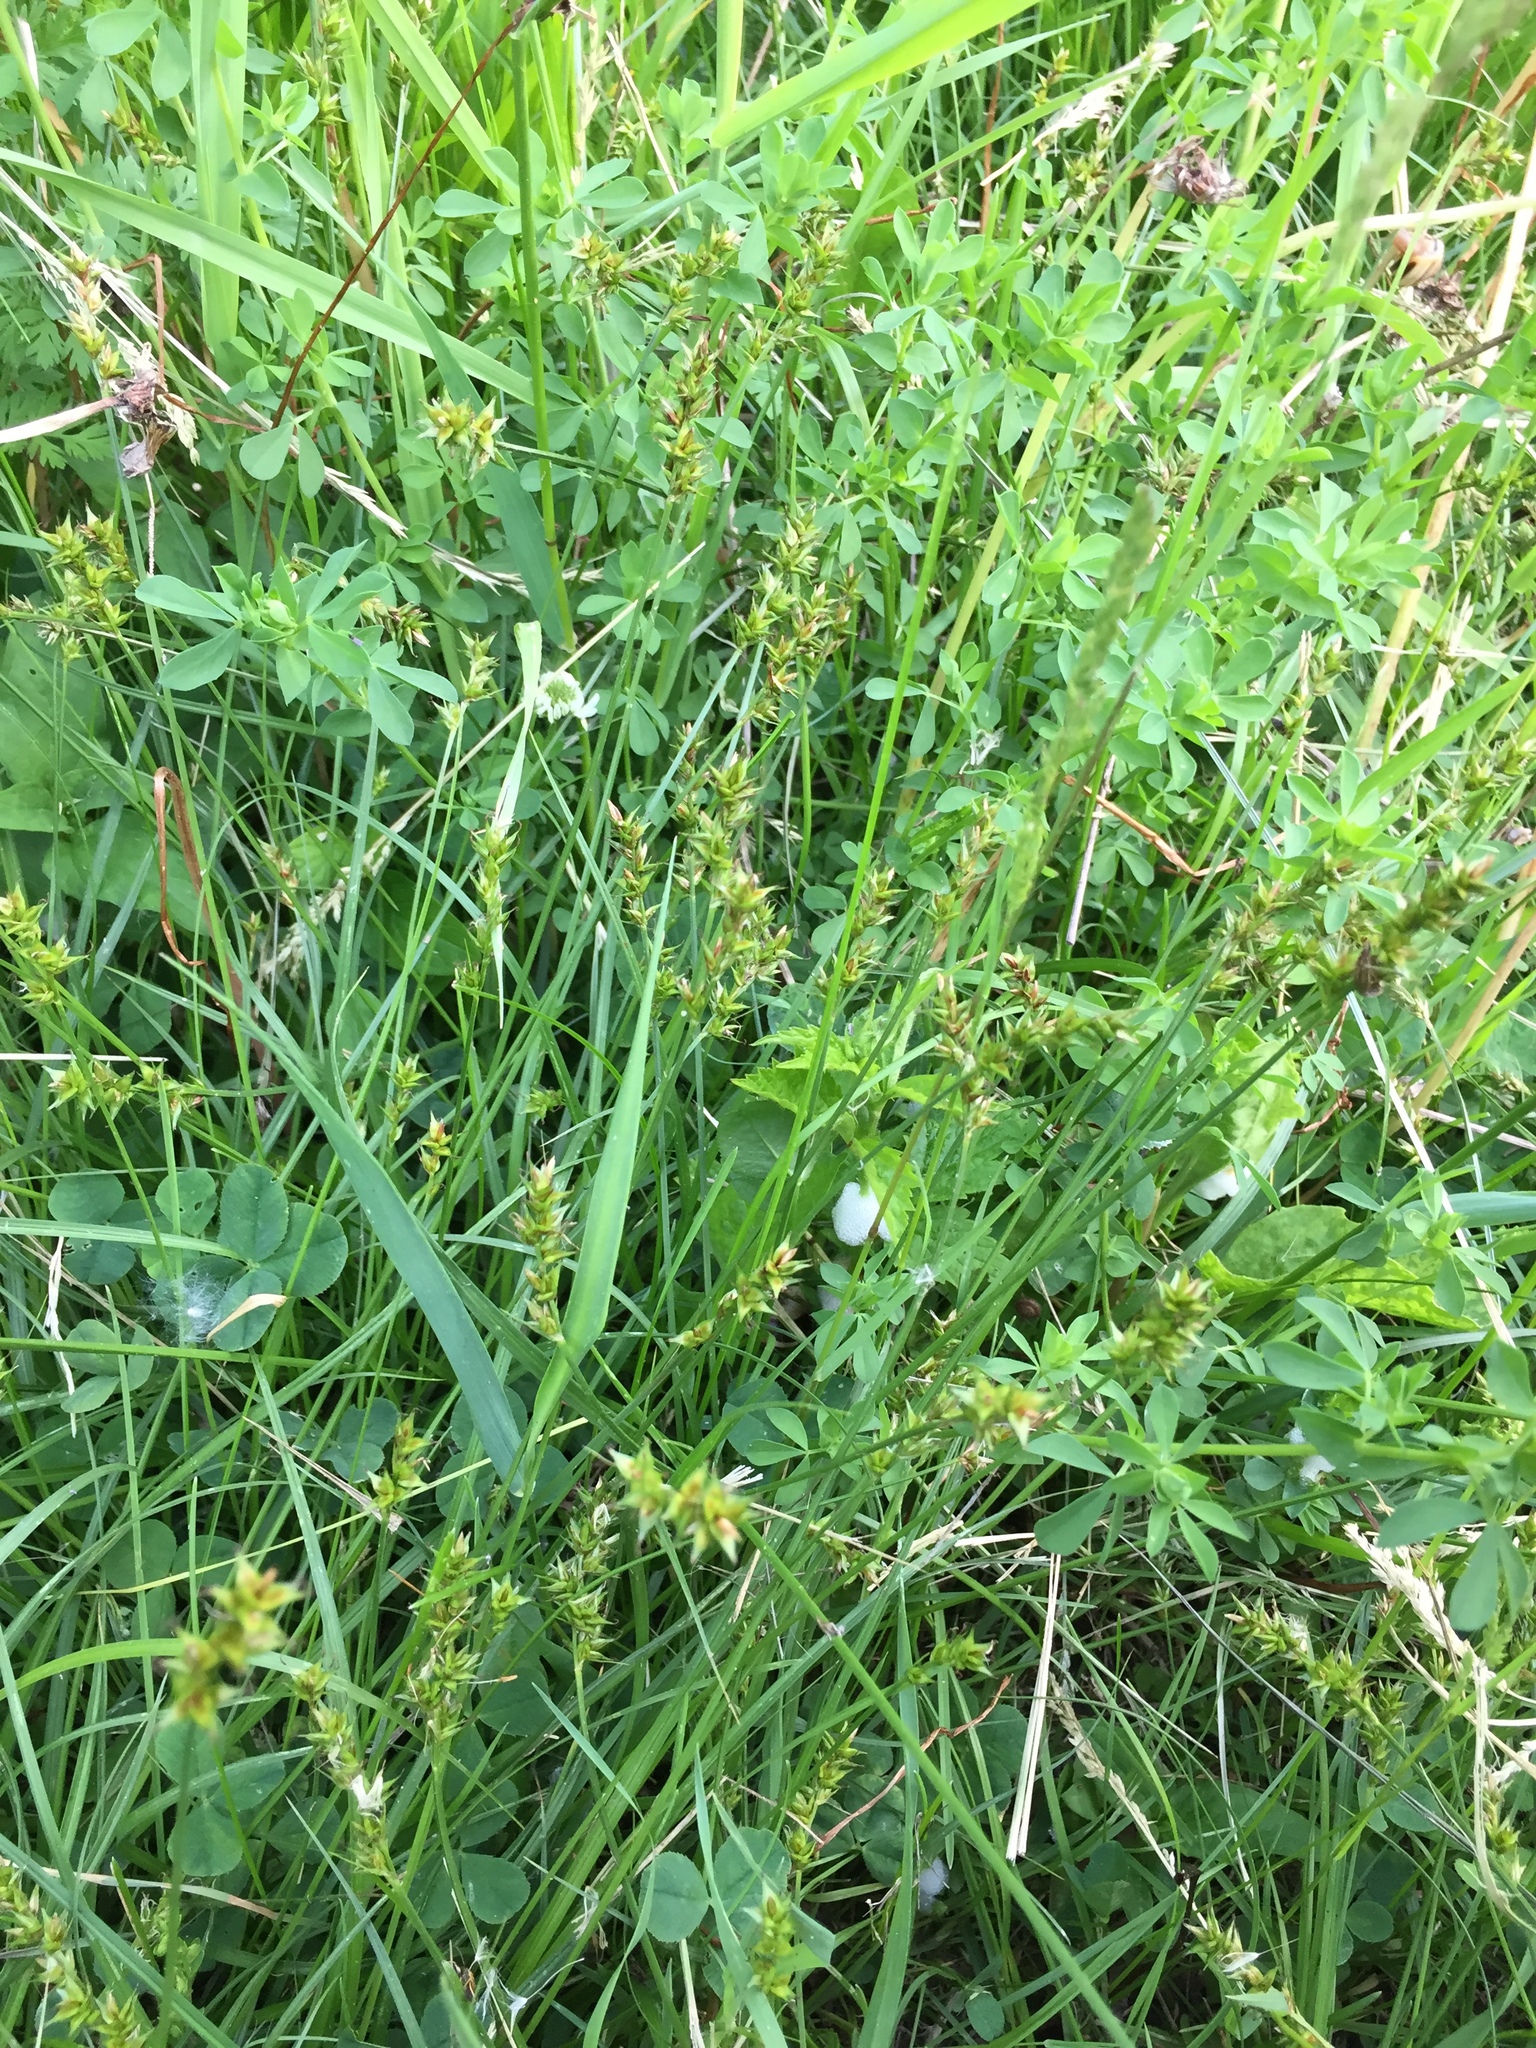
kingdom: Plantae
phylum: Tracheophyta
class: Liliopsida
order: Poales
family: Cyperaceae
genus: Carex
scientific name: Carex spicata
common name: Spiked sedge
